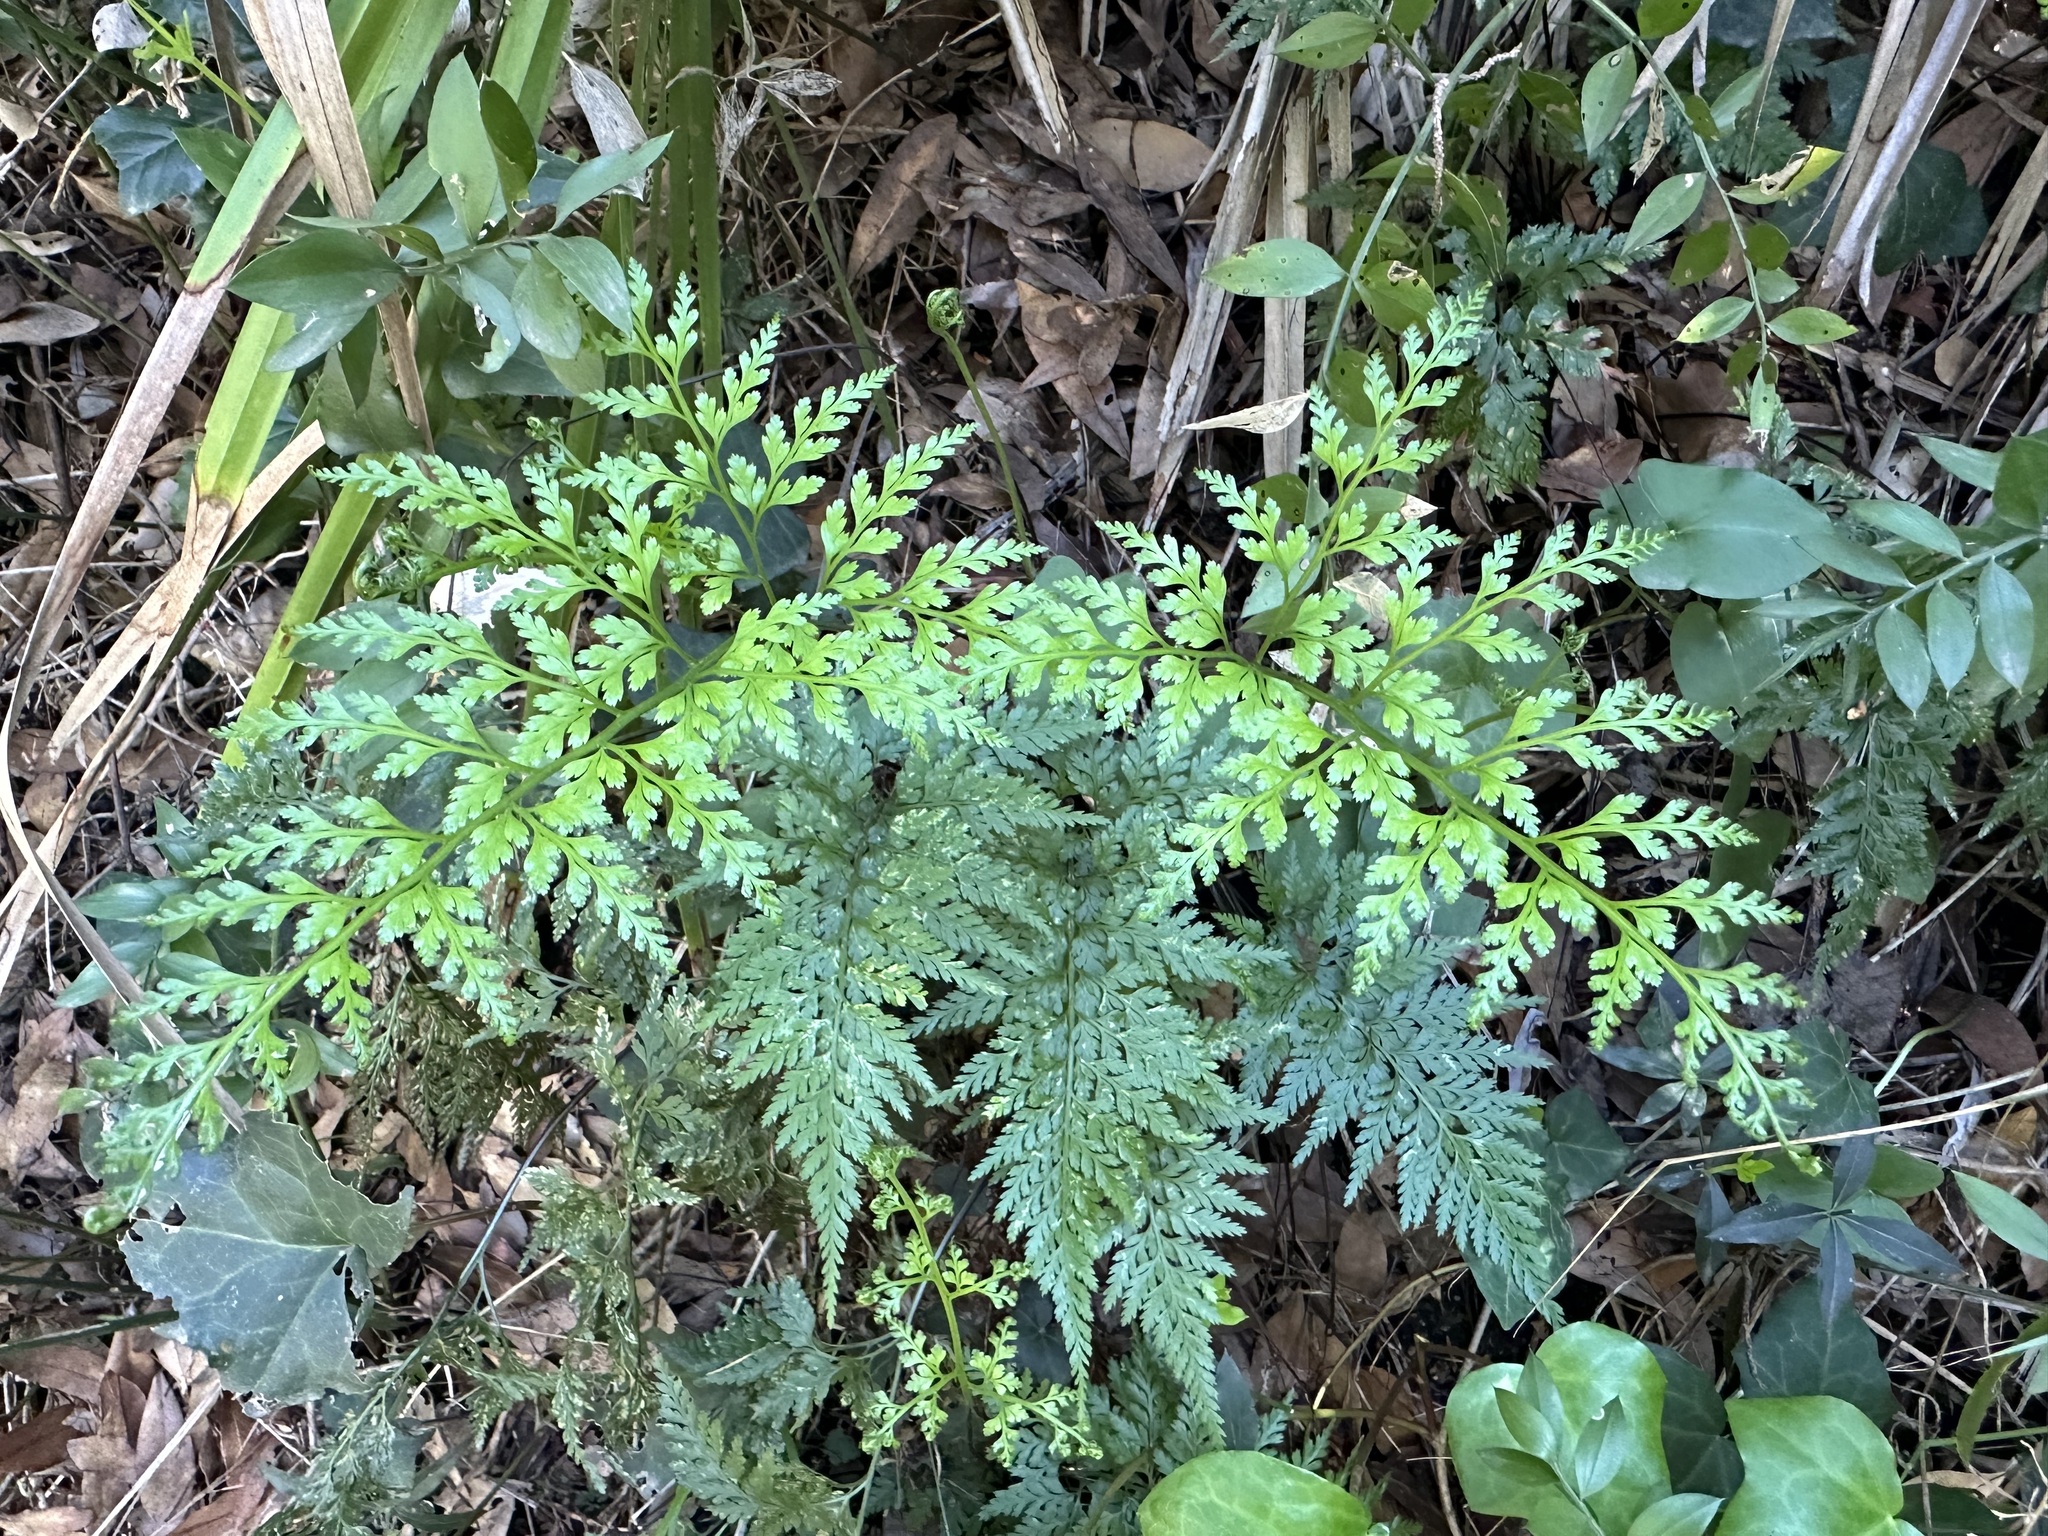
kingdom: Plantae
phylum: Tracheophyta
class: Polypodiopsida
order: Polypodiales
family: Aspleniaceae
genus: Asplenium
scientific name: Asplenium onopteris
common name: Irish spleenwort
